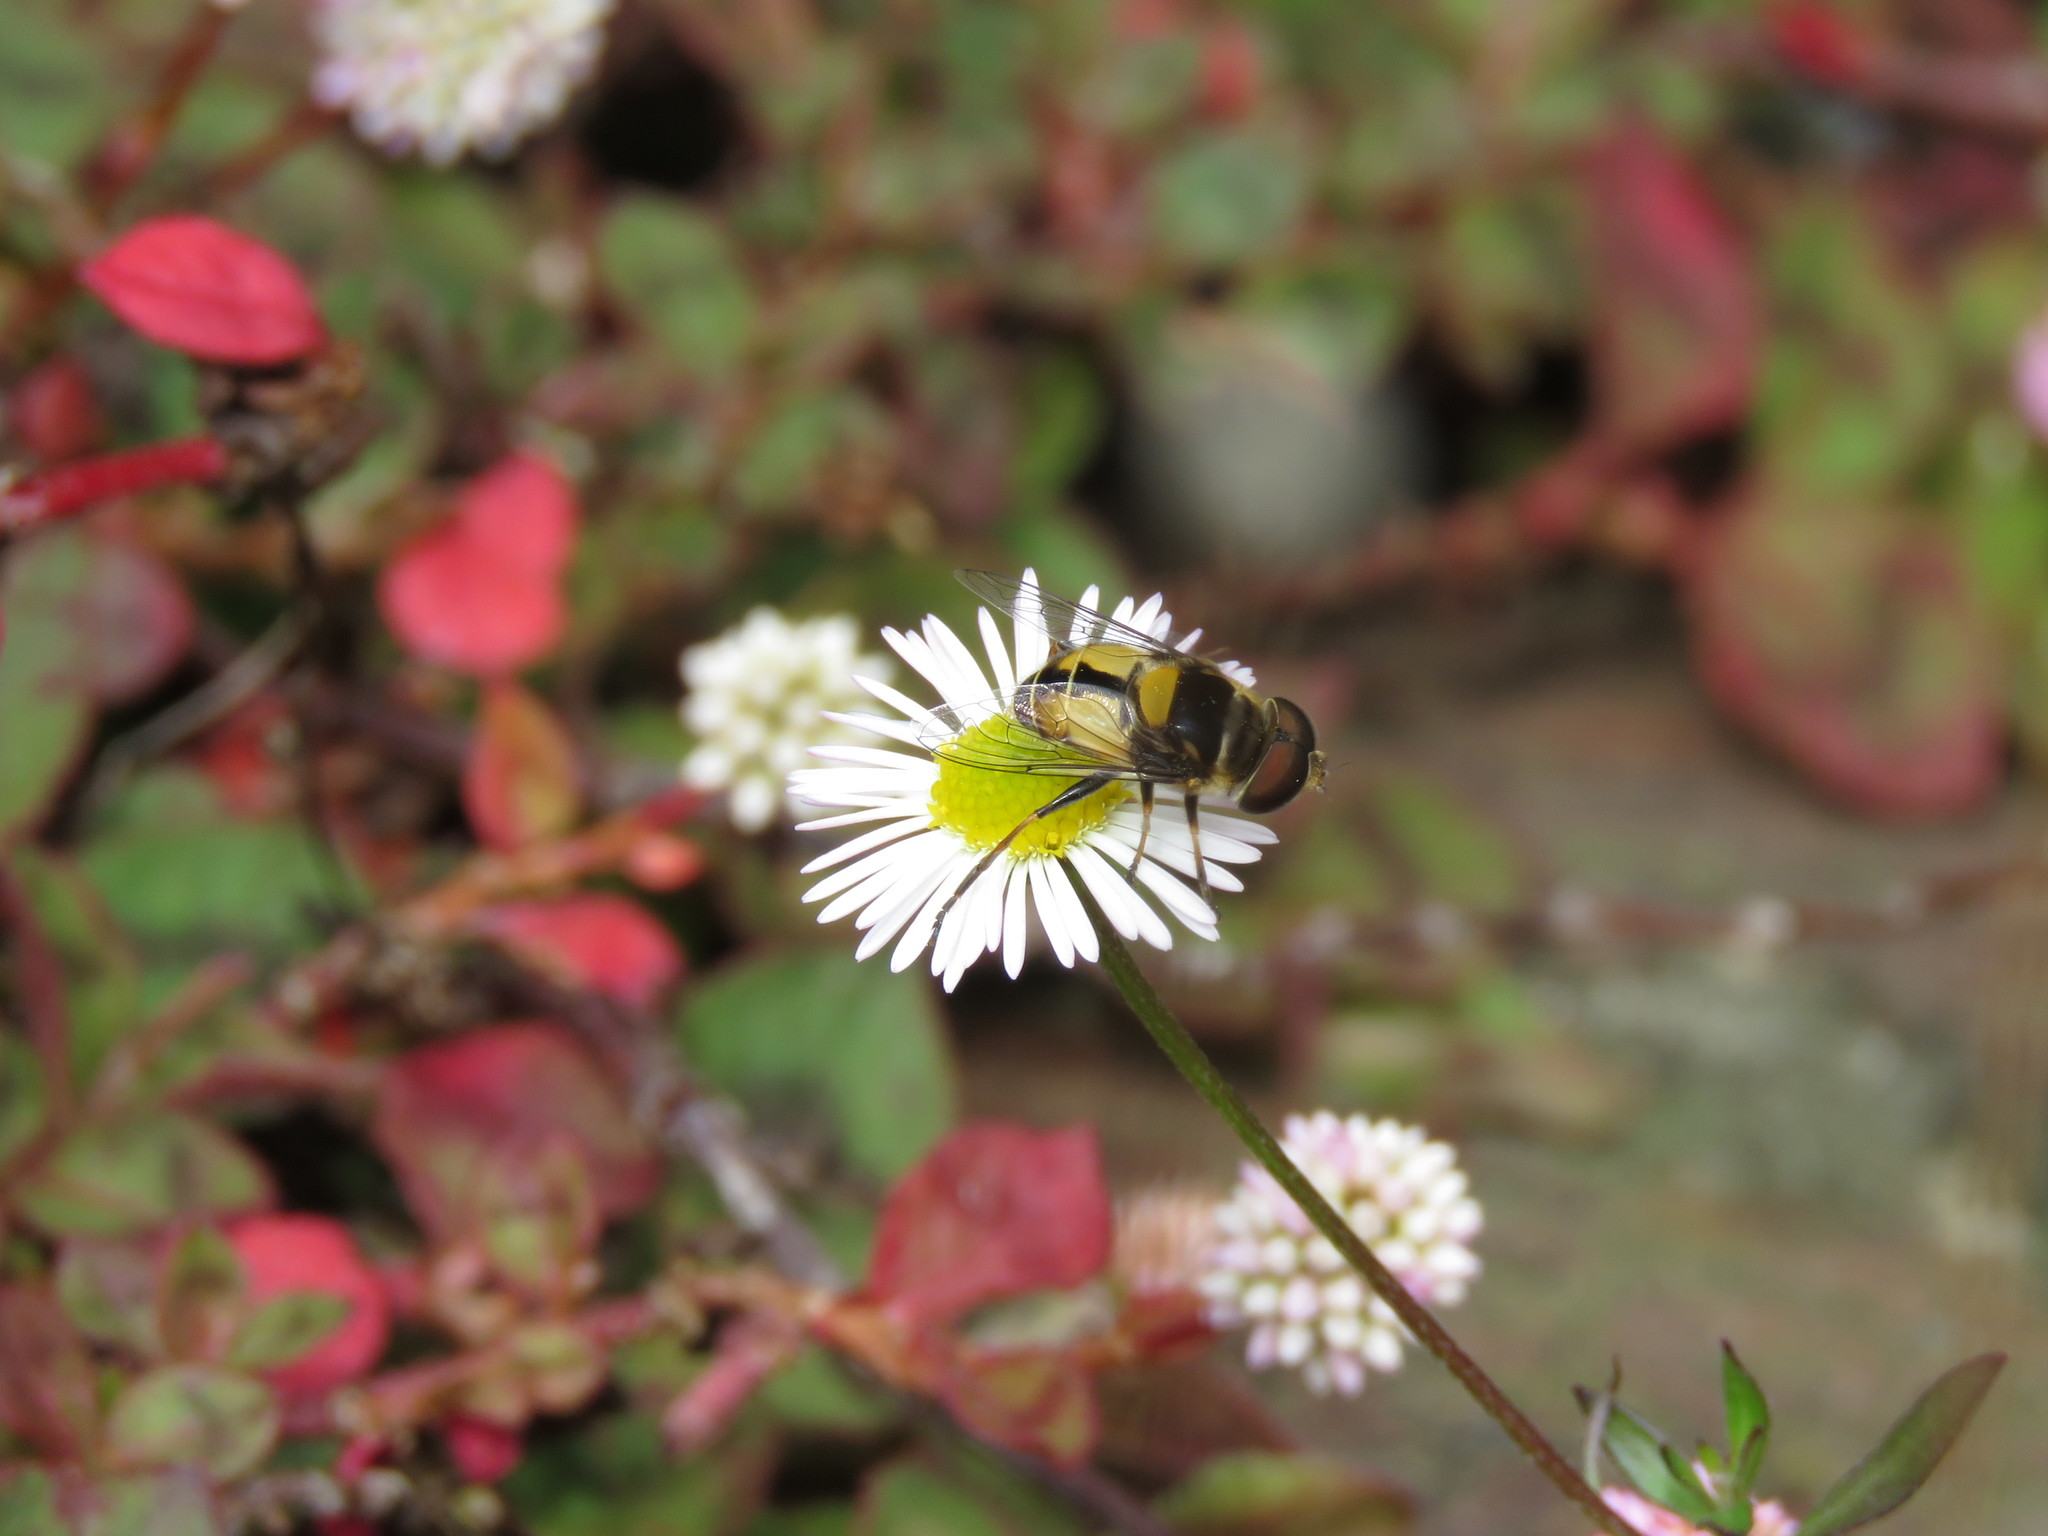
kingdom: Plantae
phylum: Tracheophyta
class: Magnoliopsida
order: Asterales
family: Asteraceae
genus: Erigeron
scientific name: Erigeron karvinskianus
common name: Mexican fleabane
